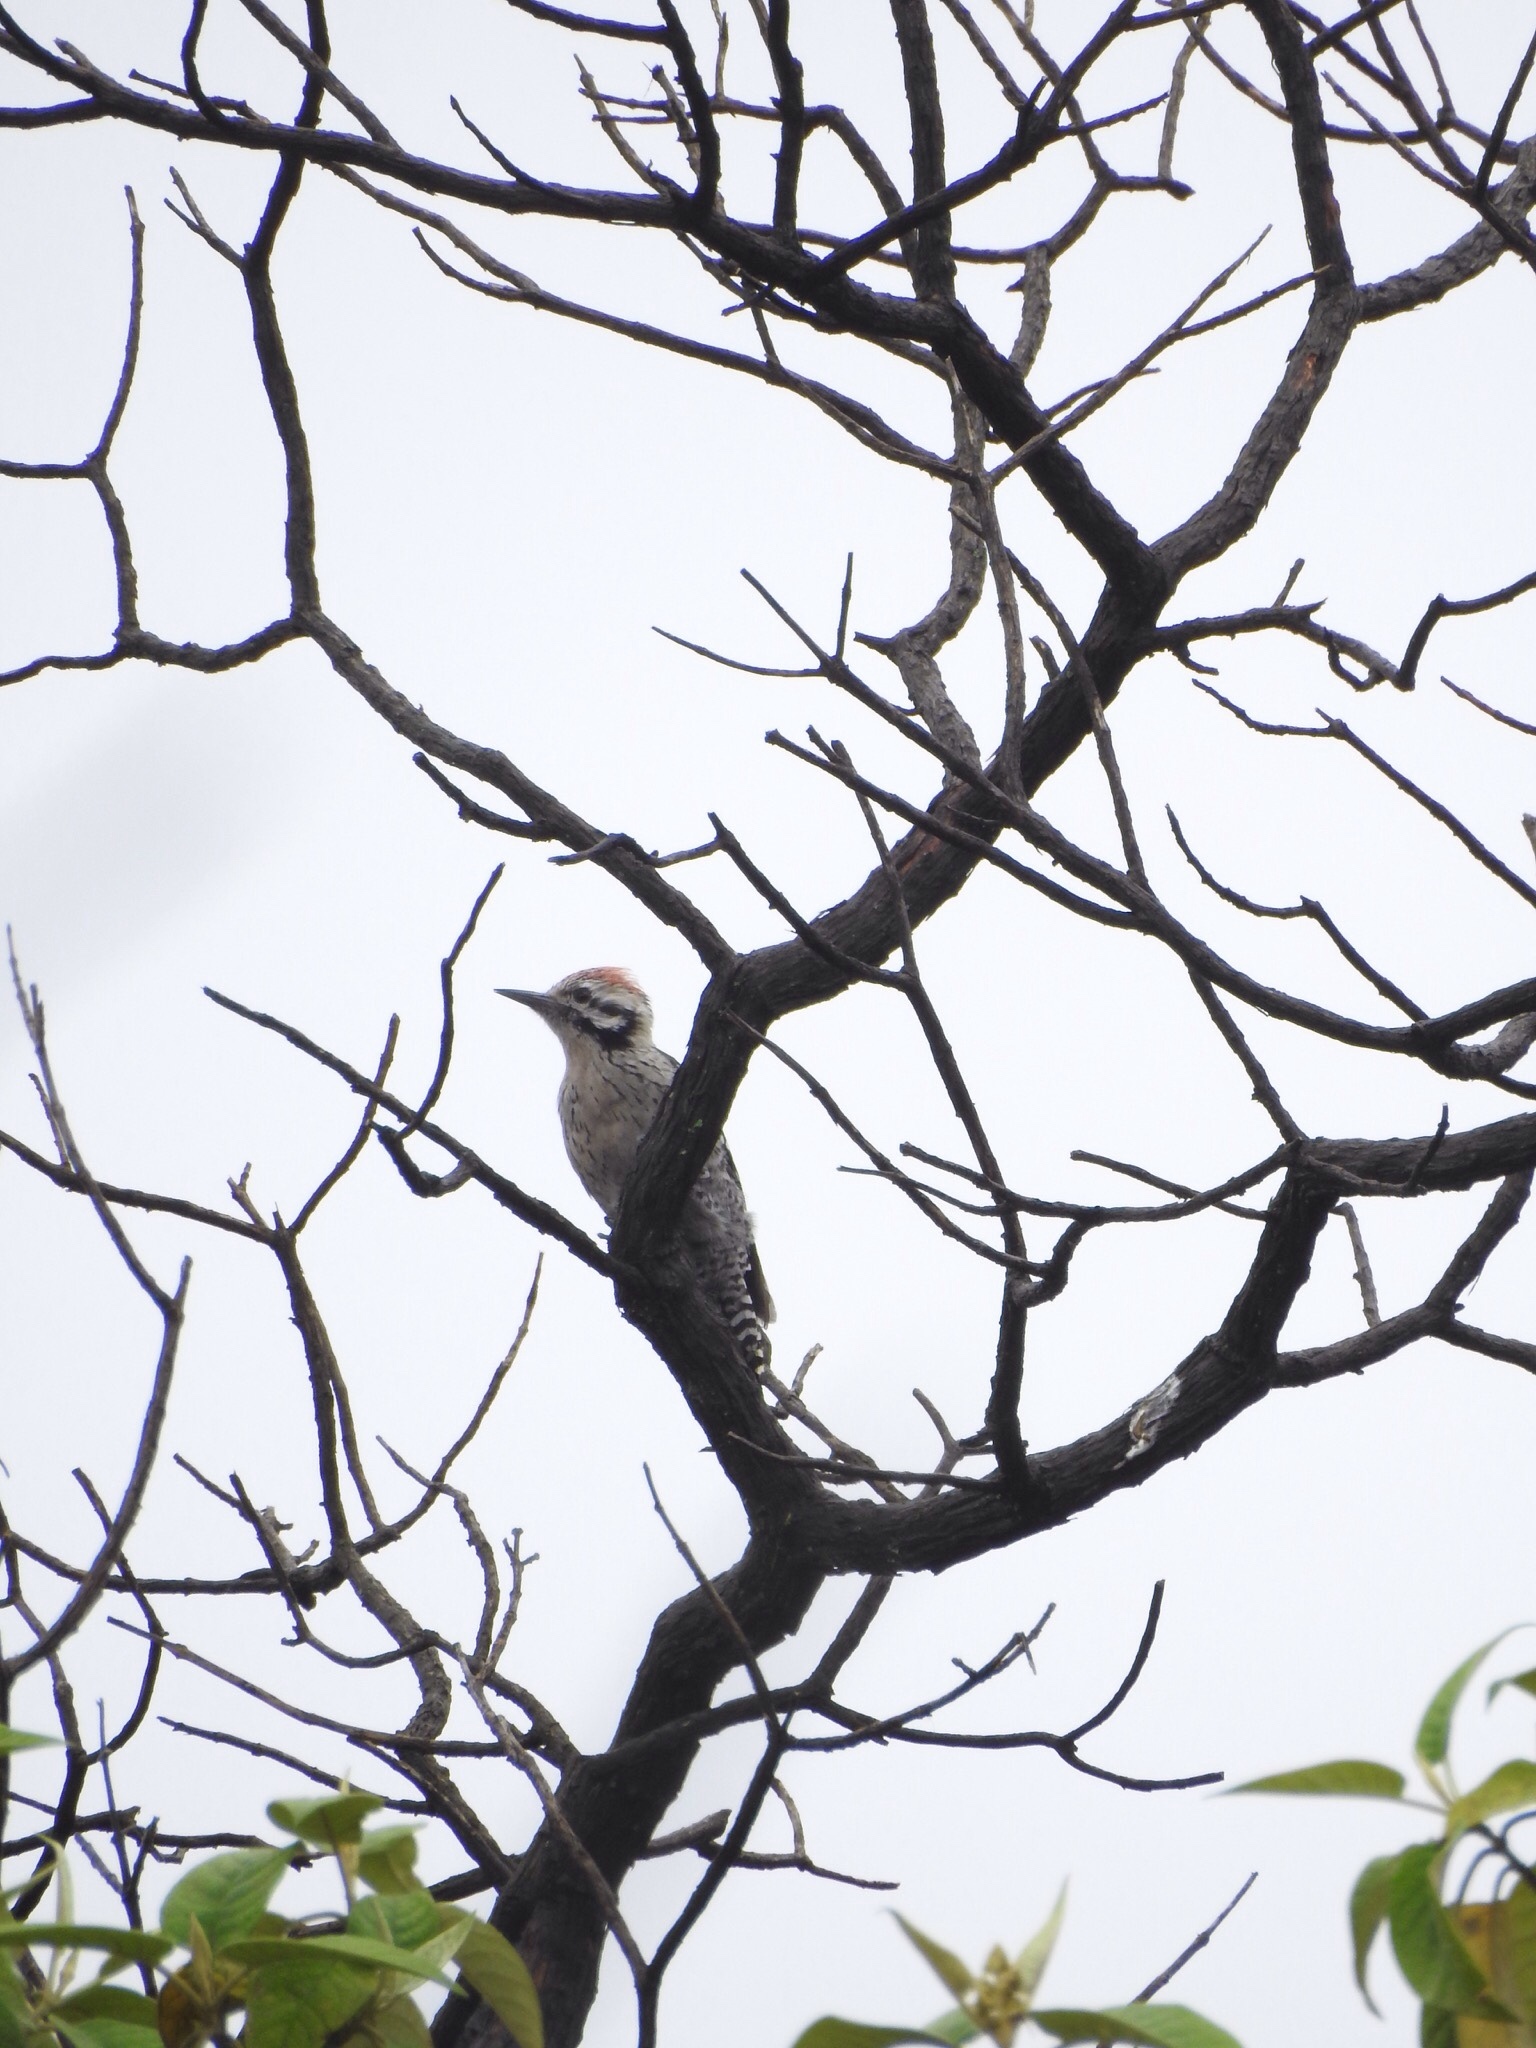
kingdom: Animalia
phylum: Chordata
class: Aves
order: Piciformes
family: Picidae
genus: Dryobates
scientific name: Dryobates scalaris
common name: Ladder-backed woodpecker
